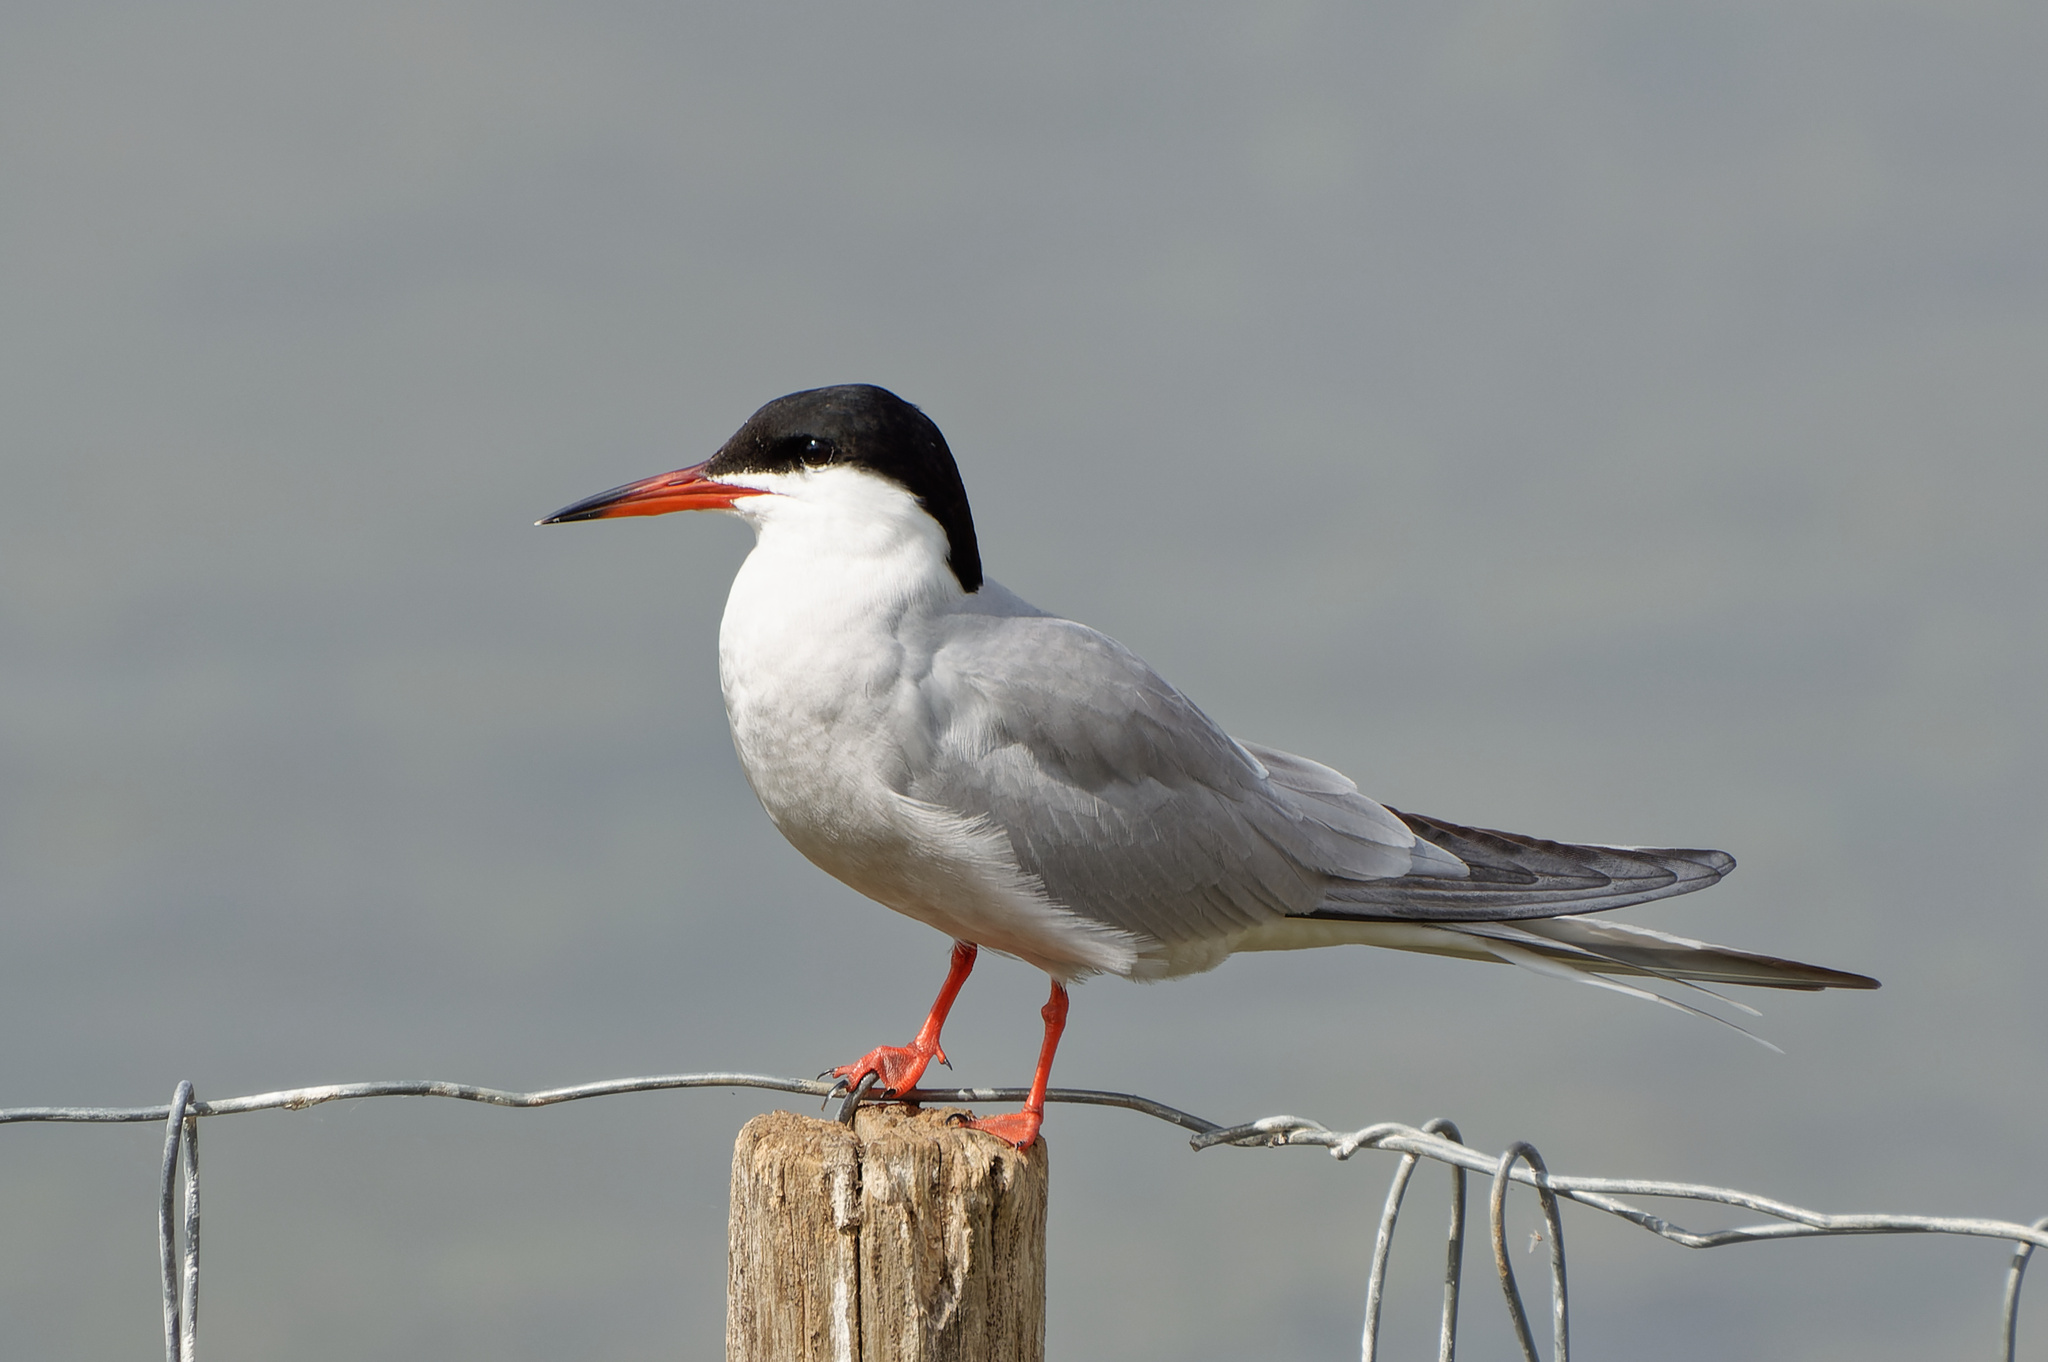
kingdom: Animalia
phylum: Chordata
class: Aves
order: Charadriiformes
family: Laridae
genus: Sterna
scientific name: Sterna hirundo
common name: Common tern
